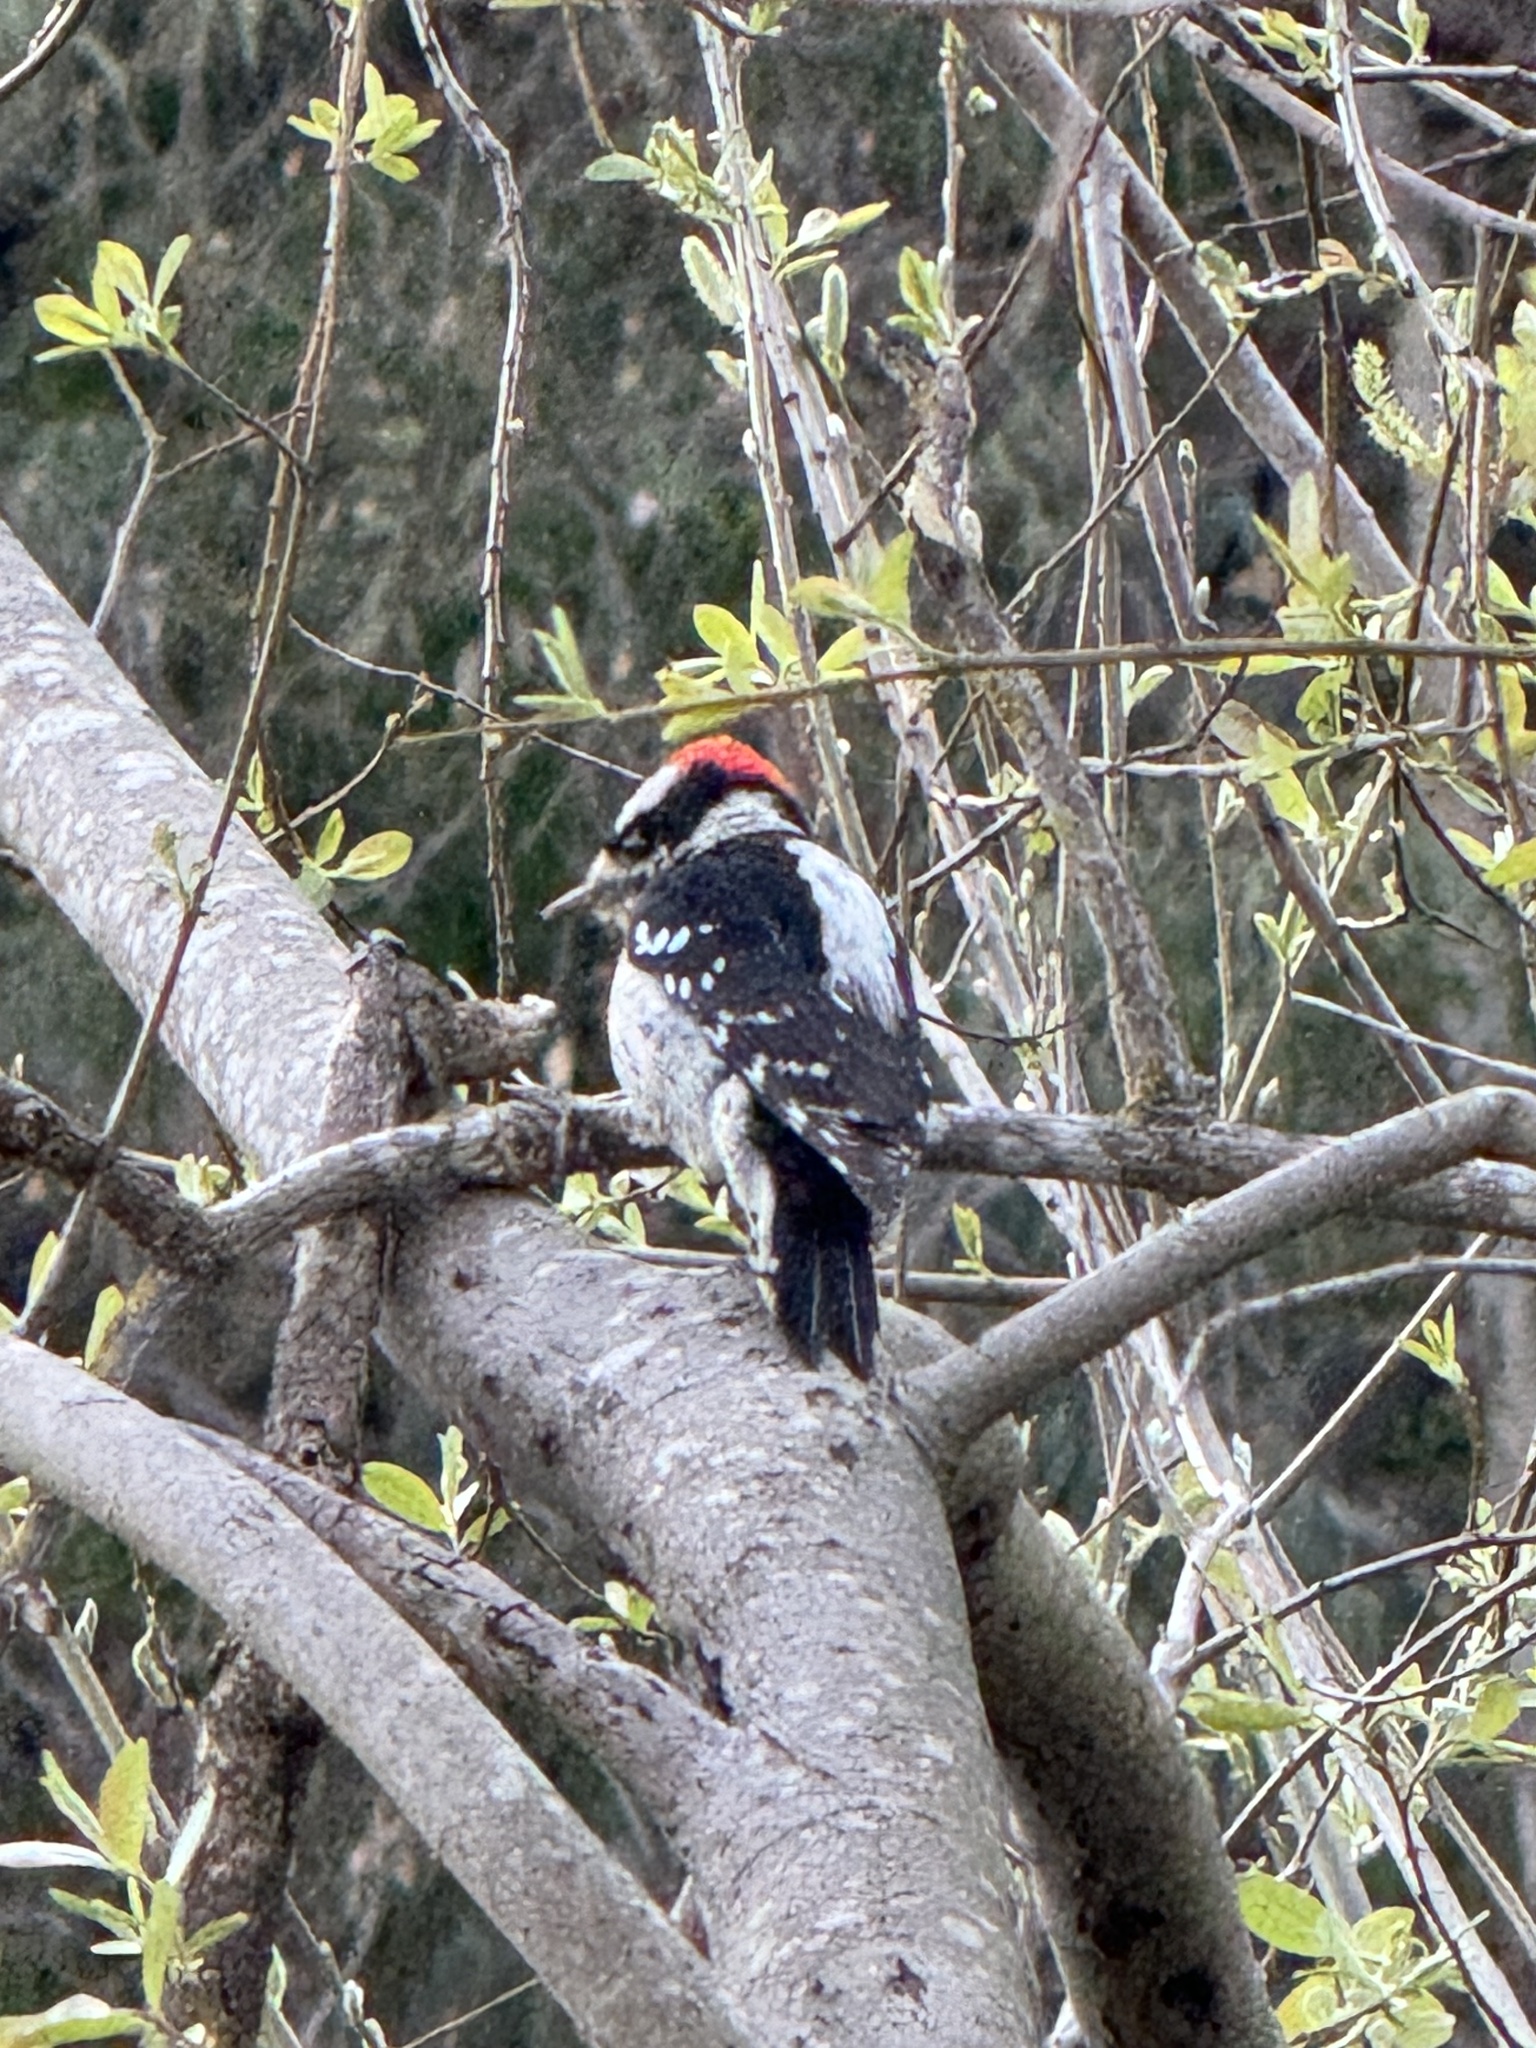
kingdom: Animalia
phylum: Chordata
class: Aves
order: Piciformes
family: Picidae
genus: Dryobates
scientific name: Dryobates pubescens
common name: Downy woodpecker
